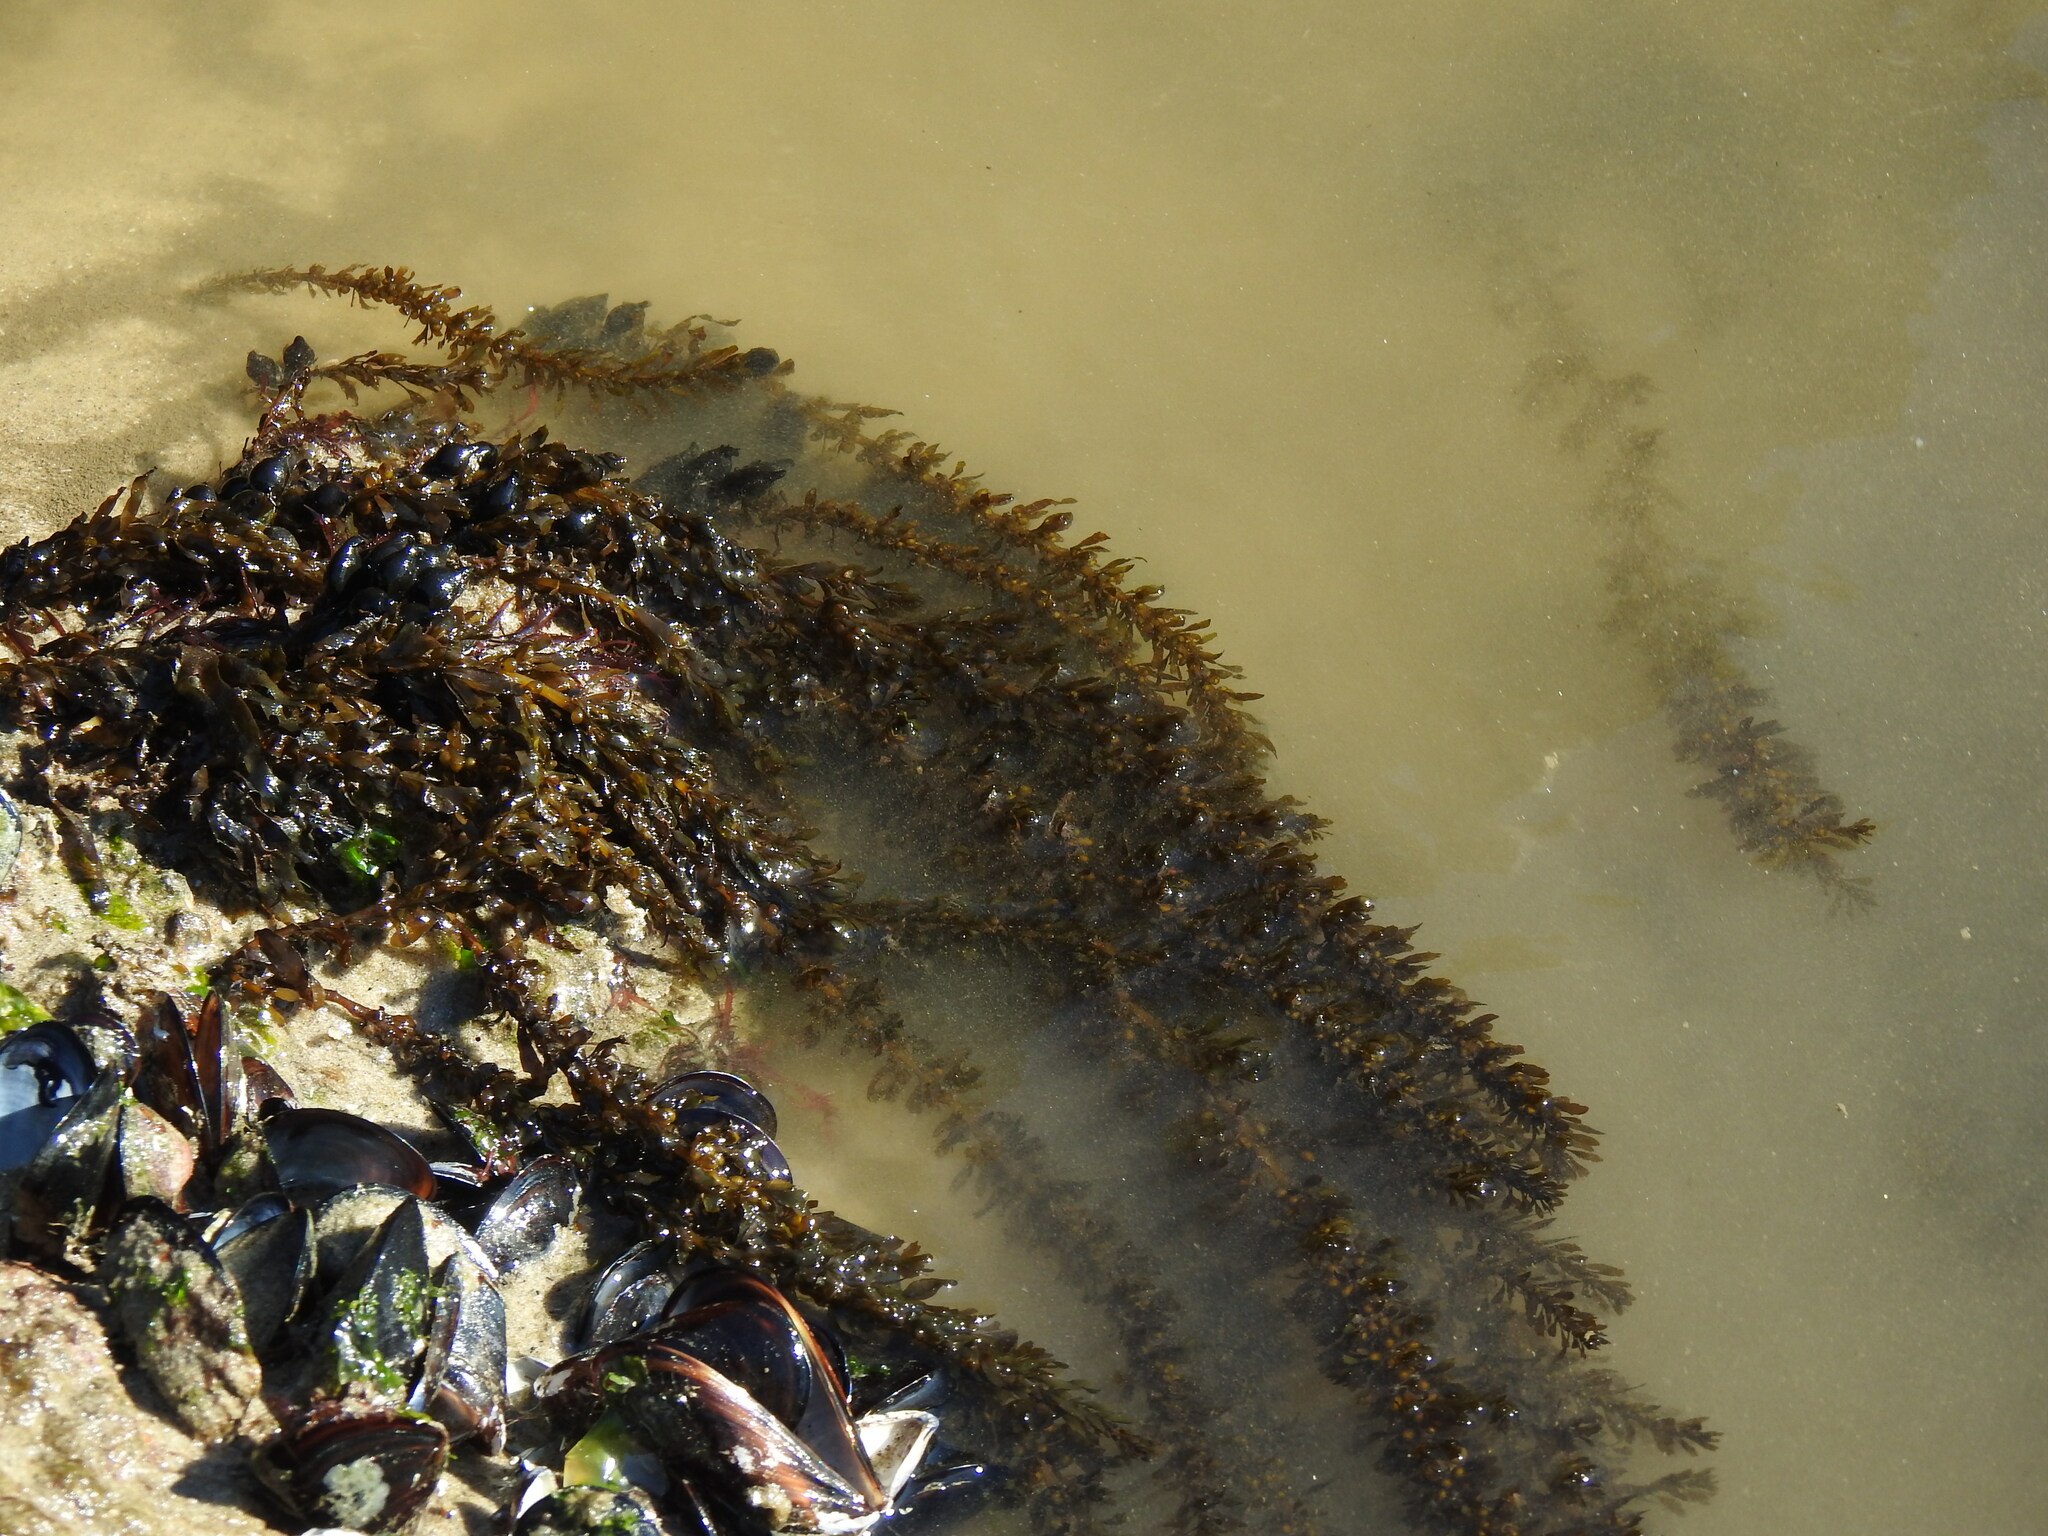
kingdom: Chromista
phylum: Ochrophyta
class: Phaeophyceae
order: Fucales
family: Sargassaceae
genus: Sargassum
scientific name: Sargassum muticum
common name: Japweed
